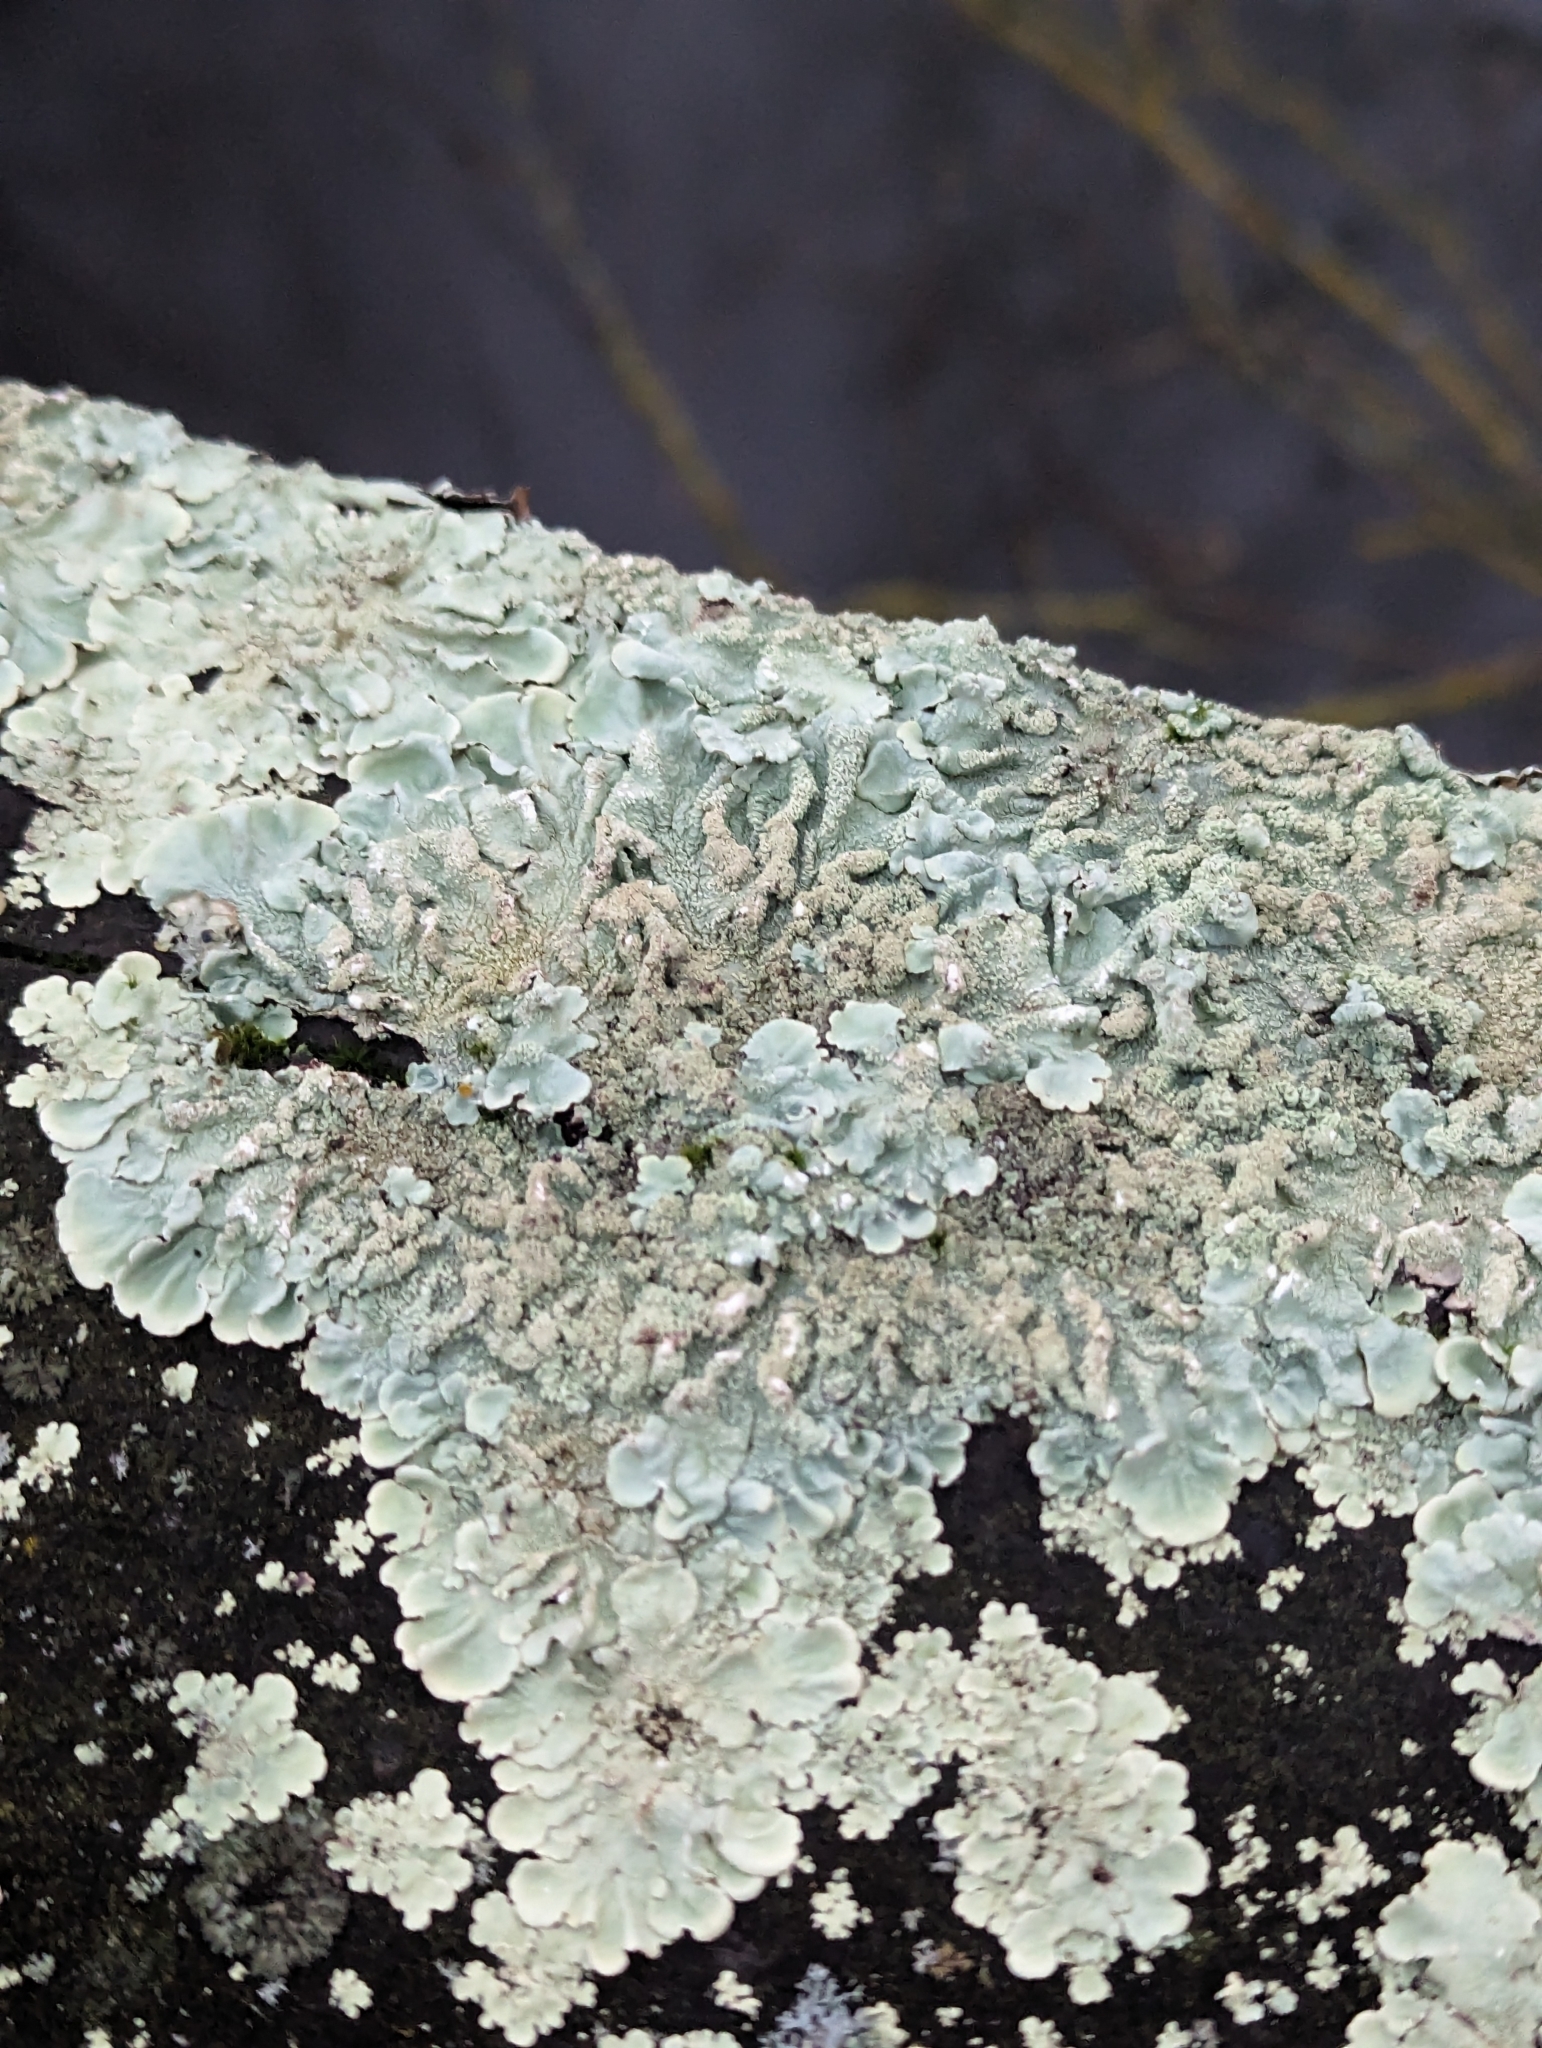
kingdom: Fungi
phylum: Ascomycota
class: Lecanoromycetes
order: Lecanorales
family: Parmeliaceae
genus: Flavoparmelia
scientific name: Flavoparmelia caperata
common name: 40-mile per hour lichen
